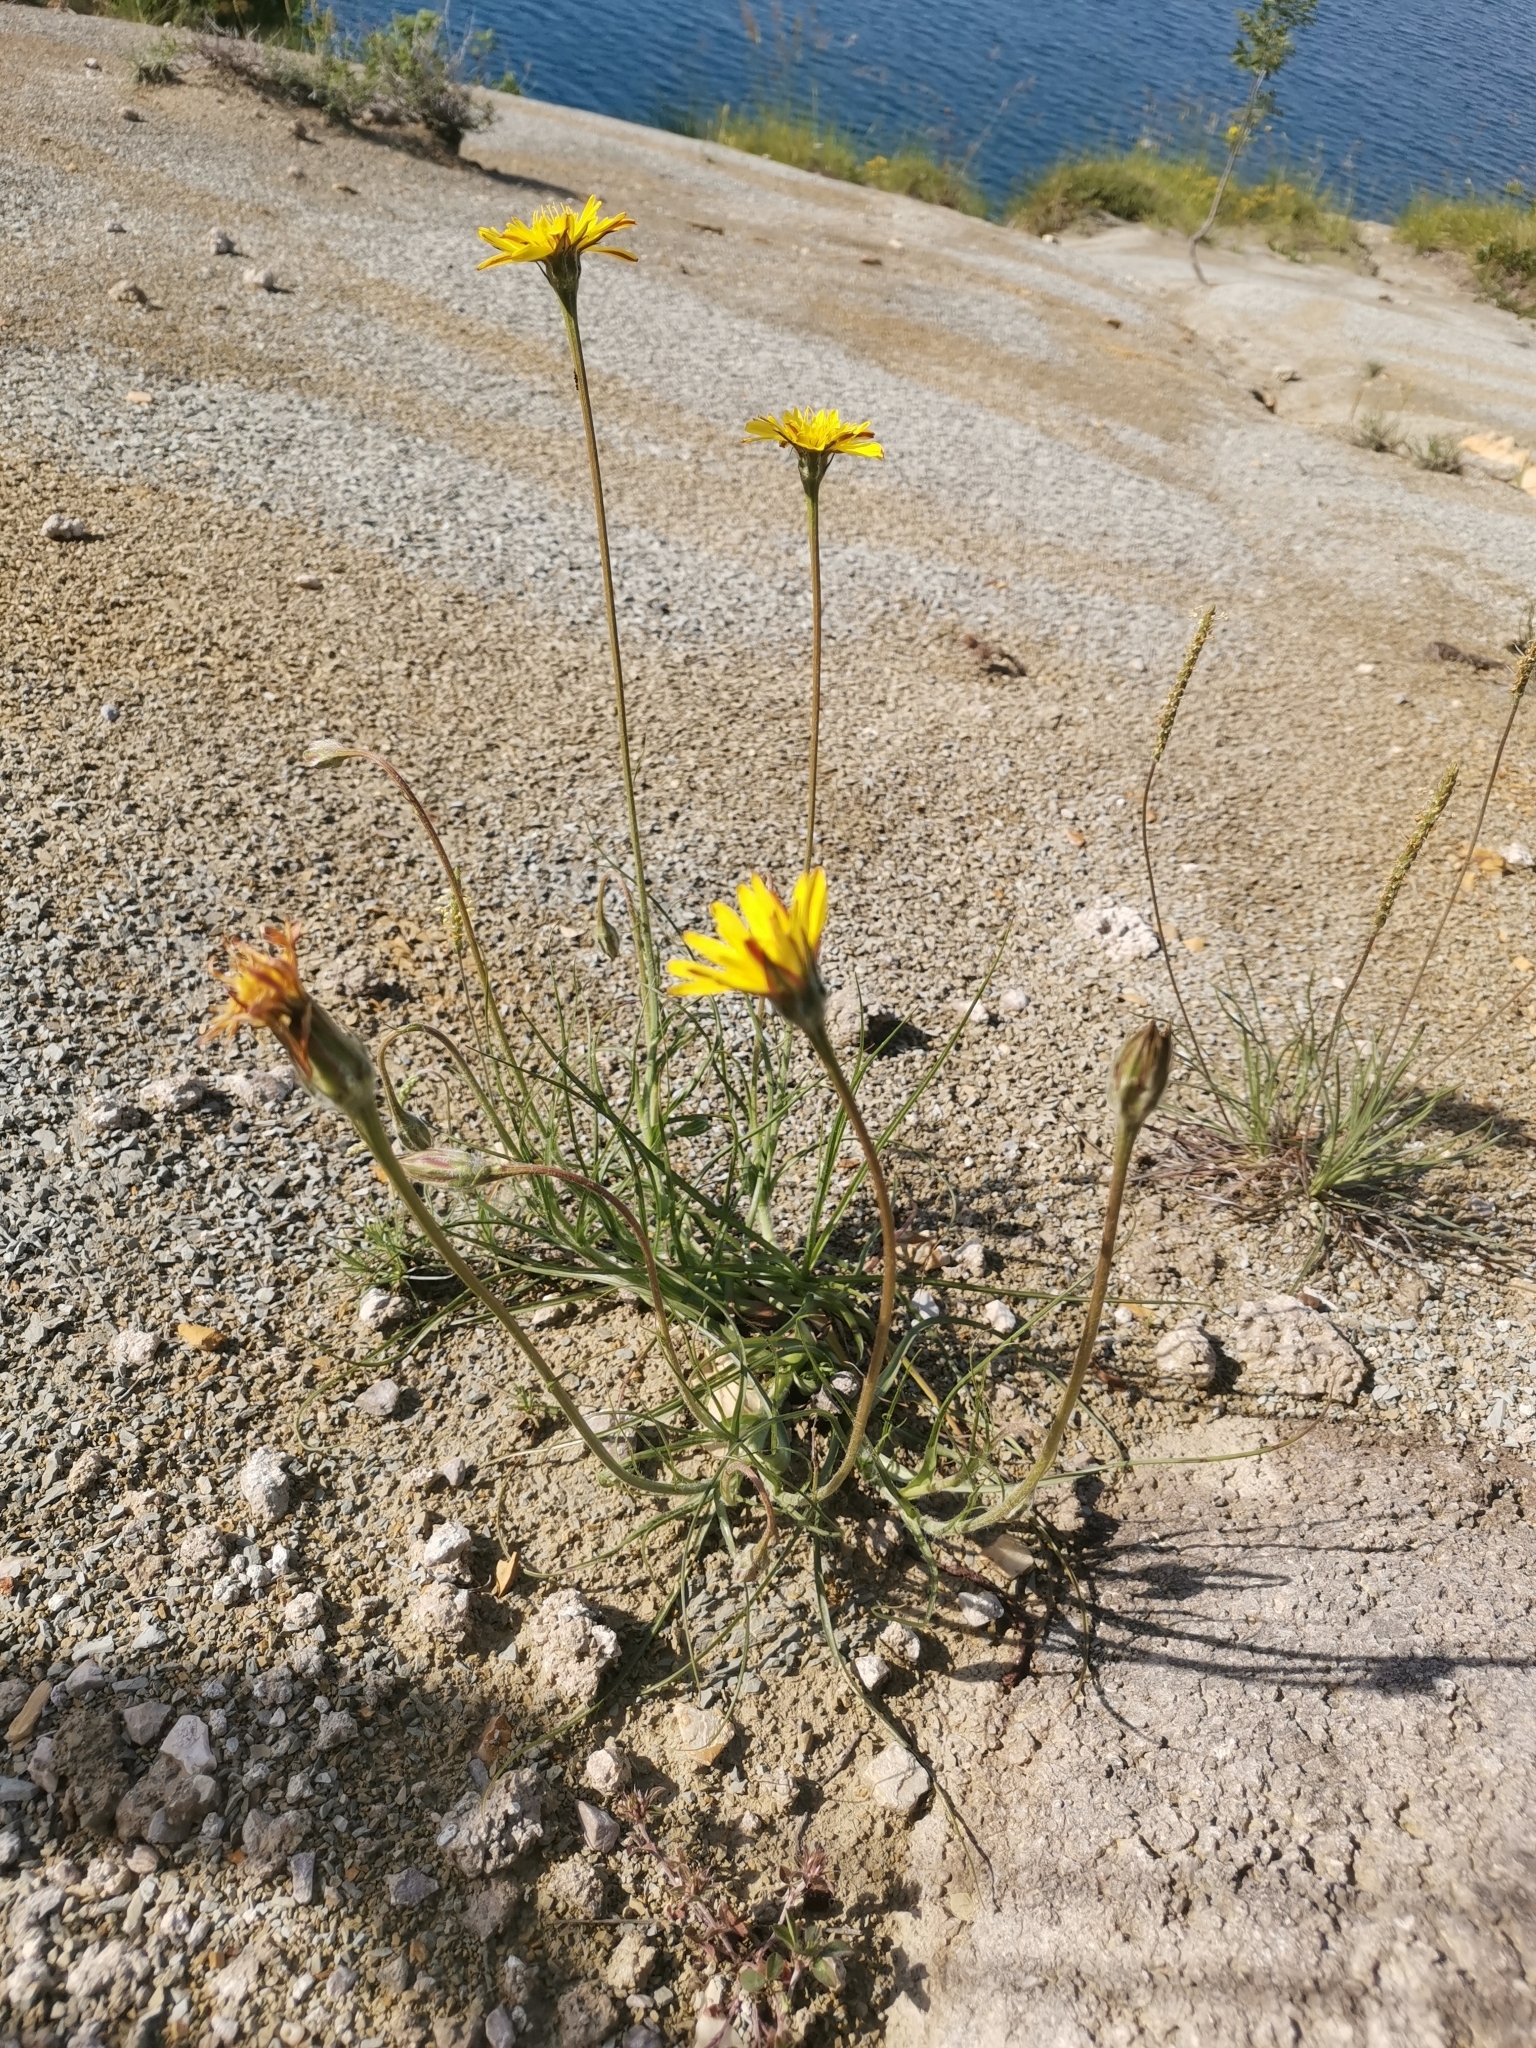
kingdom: Plantae
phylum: Tracheophyta
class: Magnoliopsida
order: Asterales
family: Asteraceae
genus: Gelasia
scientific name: Gelasia villosa
